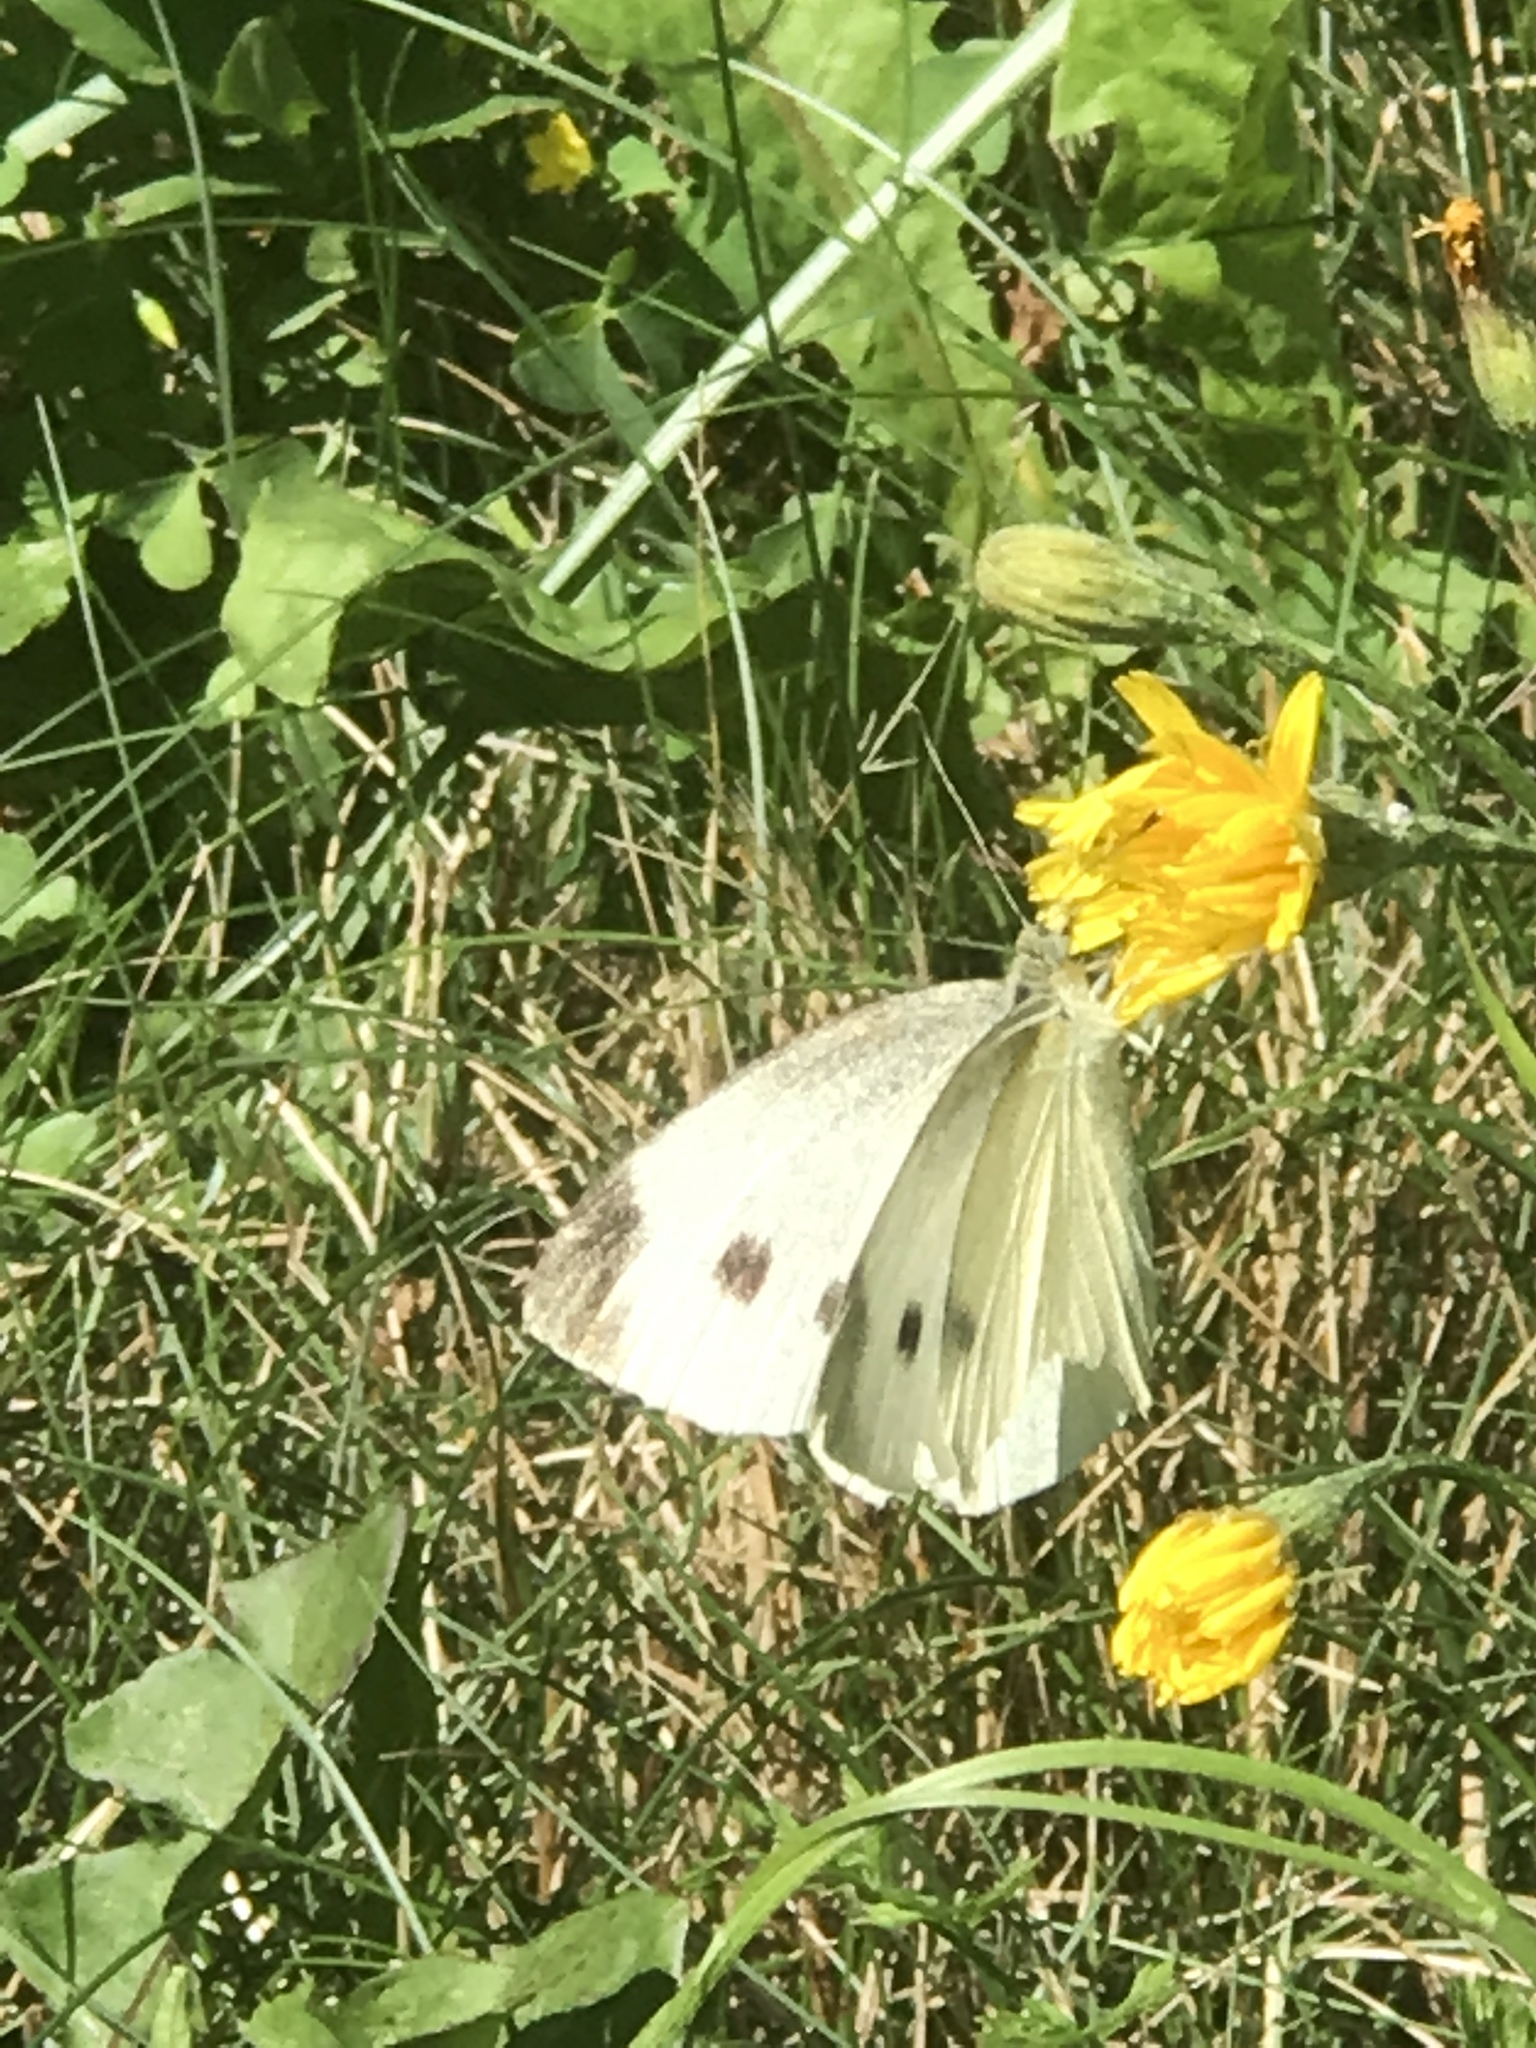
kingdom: Animalia
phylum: Arthropoda
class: Insecta
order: Lepidoptera
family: Pieridae
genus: Pieris
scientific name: Pieris rapae
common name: Small white
